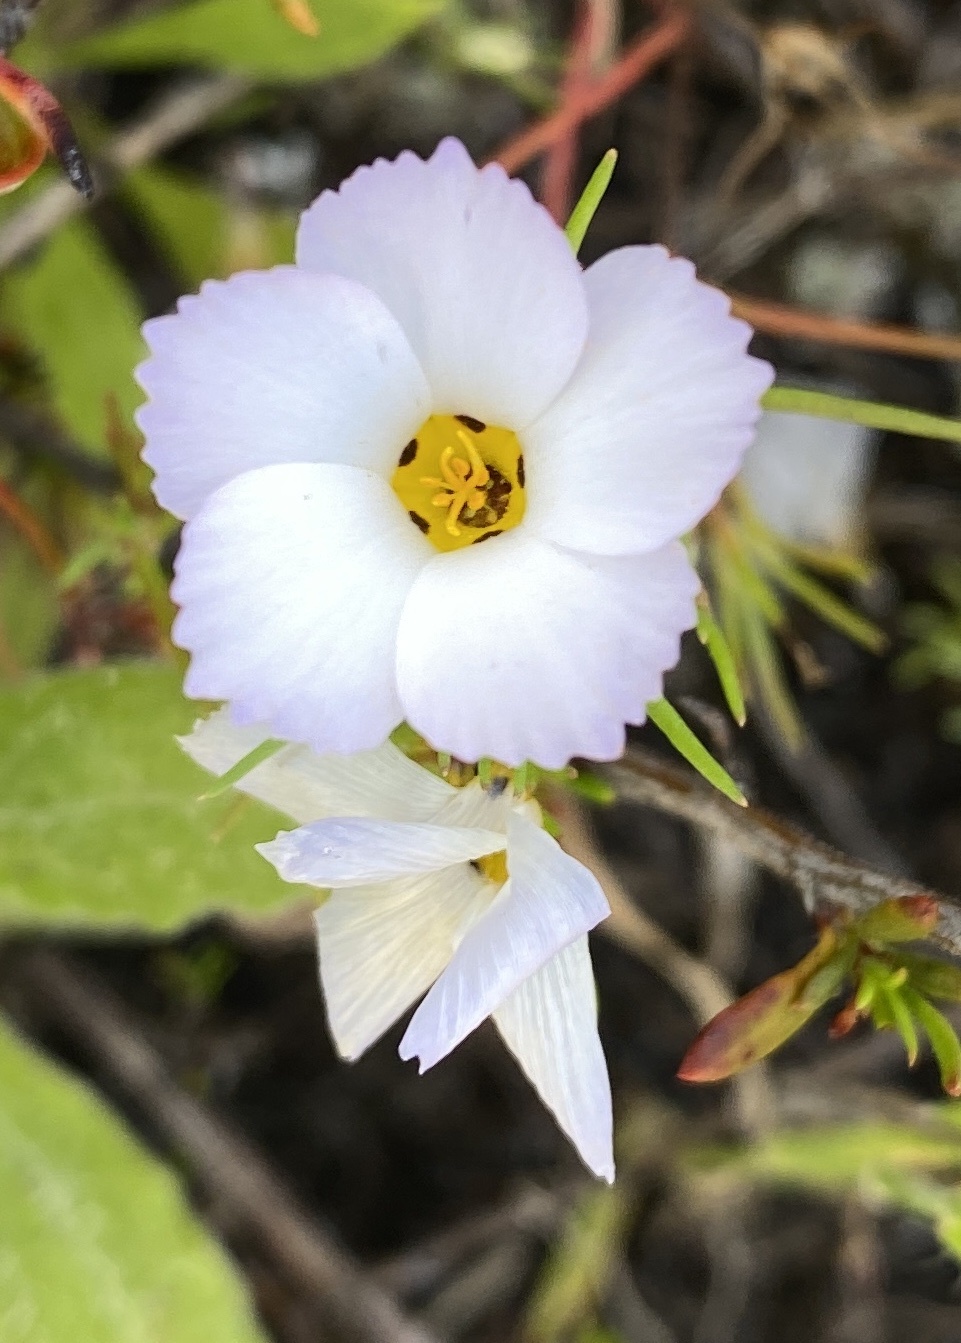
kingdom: Plantae
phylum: Tracheophyta
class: Magnoliopsida
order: Ericales
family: Polemoniaceae
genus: Linanthus
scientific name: Linanthus dianthiflorus
